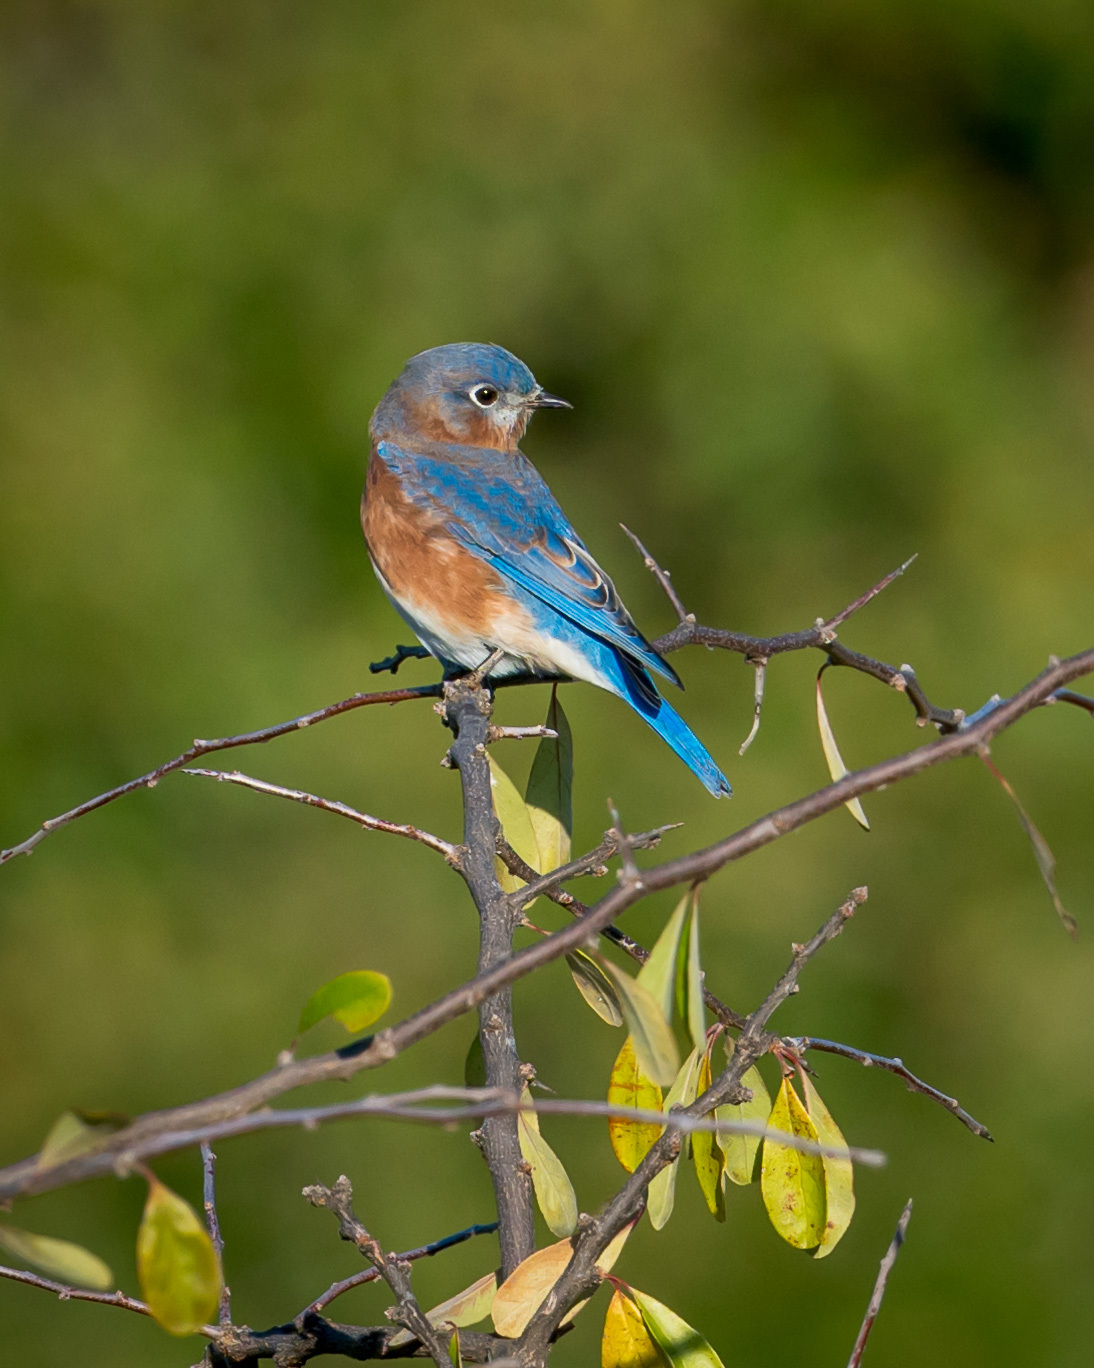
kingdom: Animalia
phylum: Chordata
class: Aves
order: Passeriformes
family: Turdidae
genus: Sialia
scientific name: Sialia sialis
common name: Eastern bluebird
